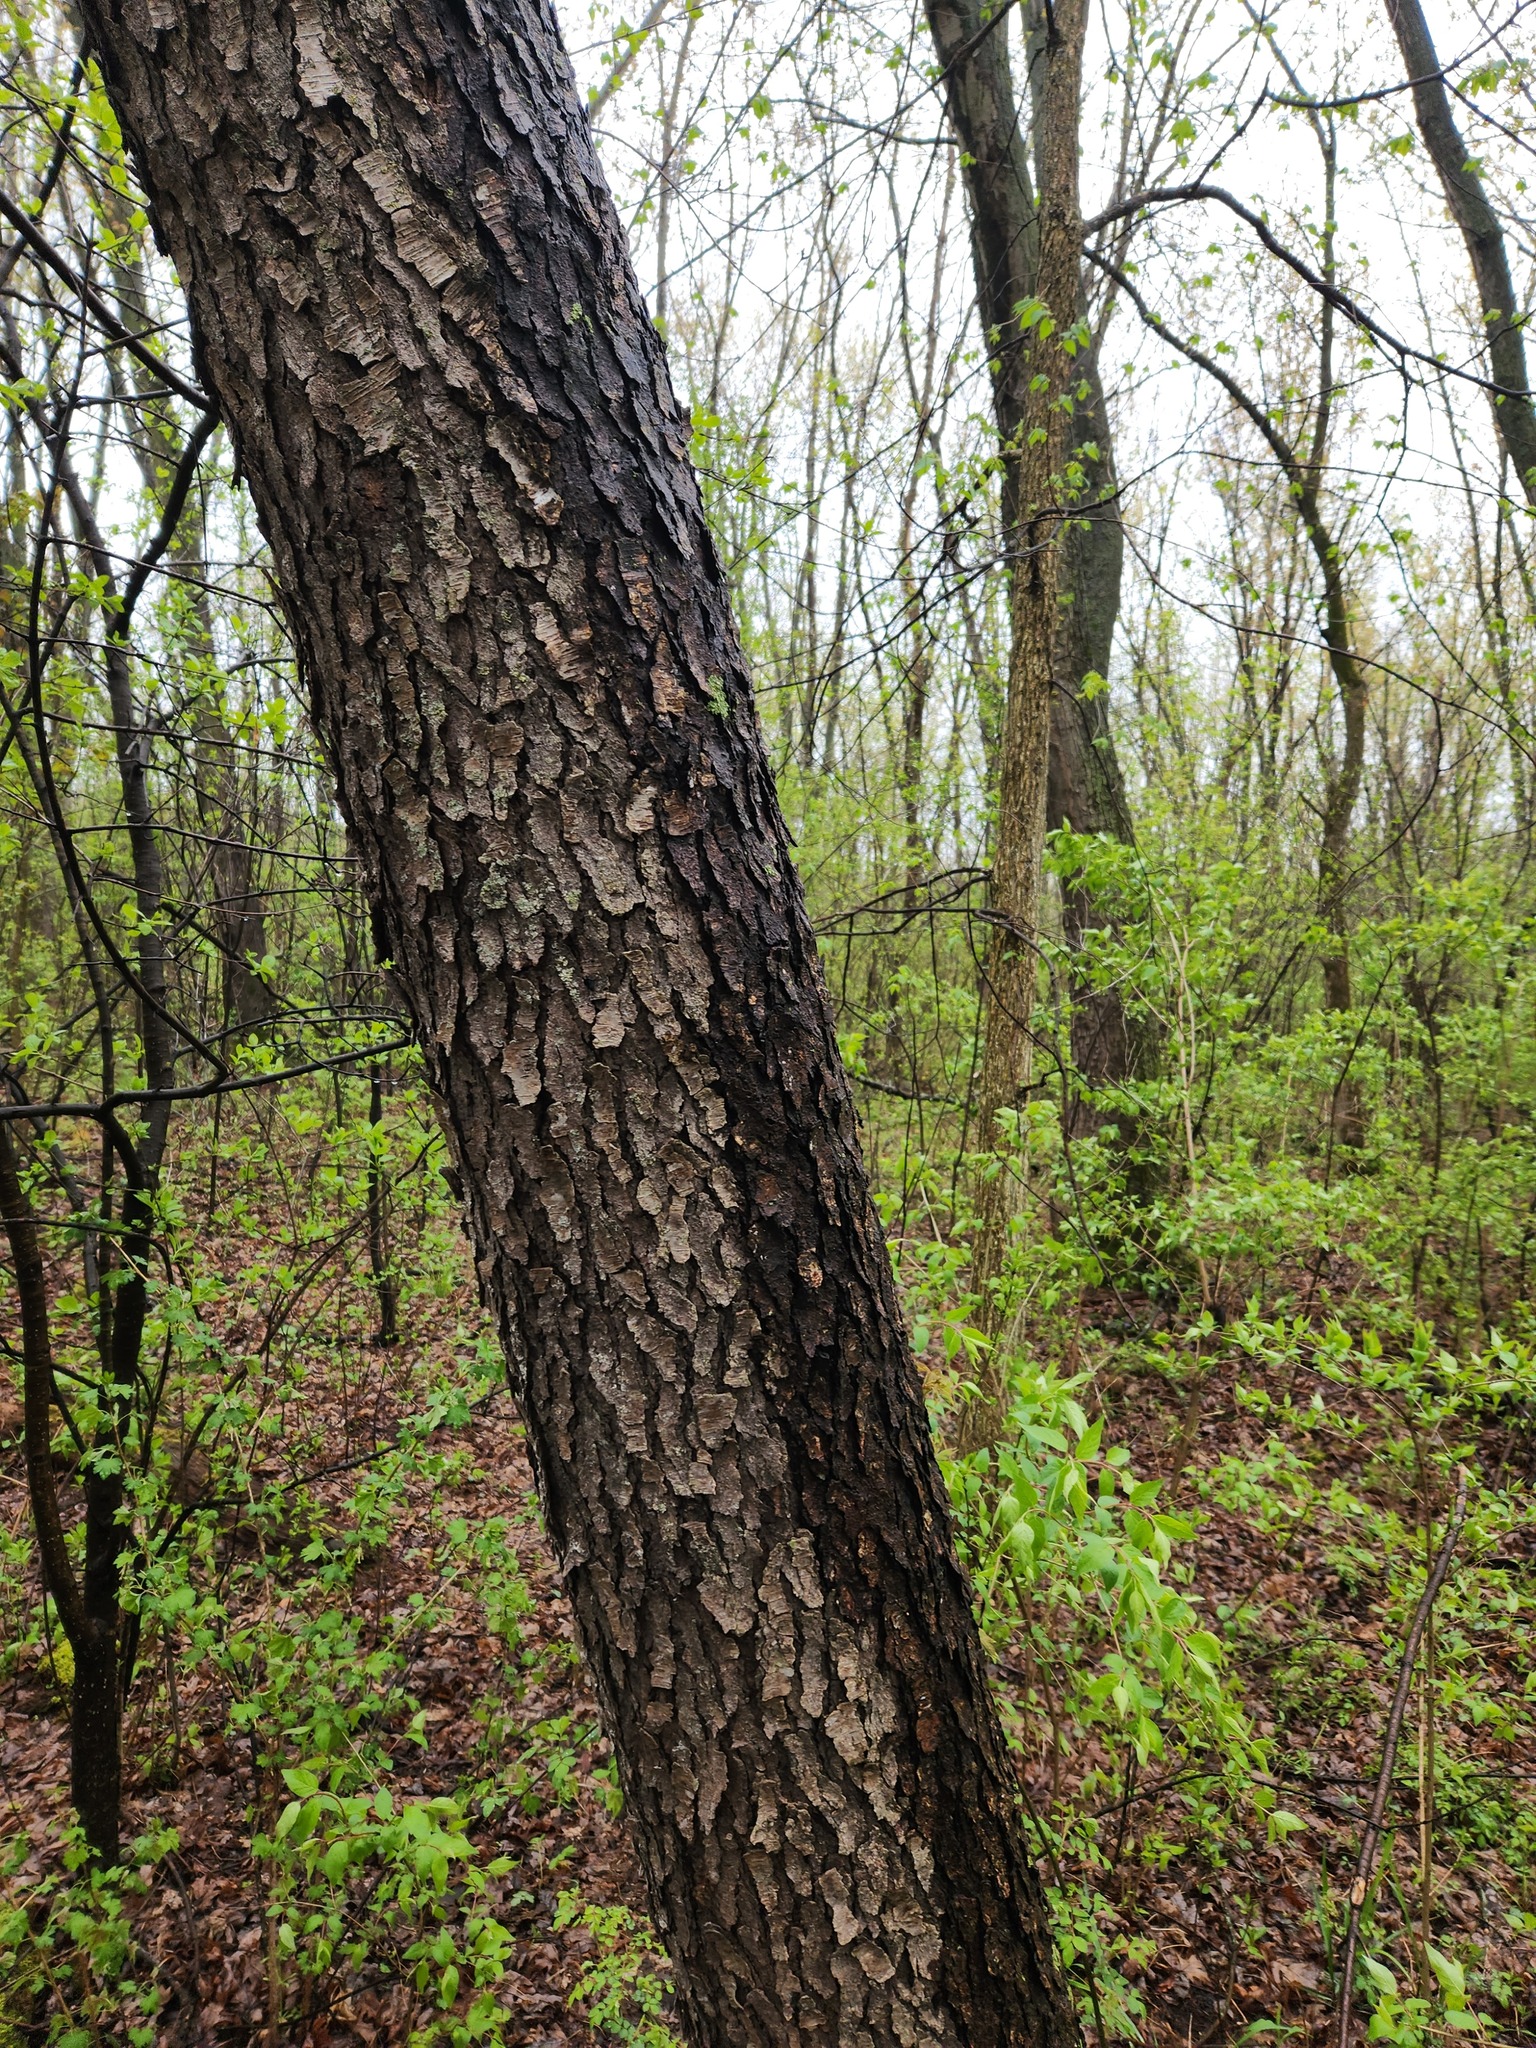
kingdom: Plantae
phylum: Tracheophyta
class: Magnoliopsida
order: Rosales
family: Rosaceae
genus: Prunus
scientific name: Prunus serotina
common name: Black cherry
